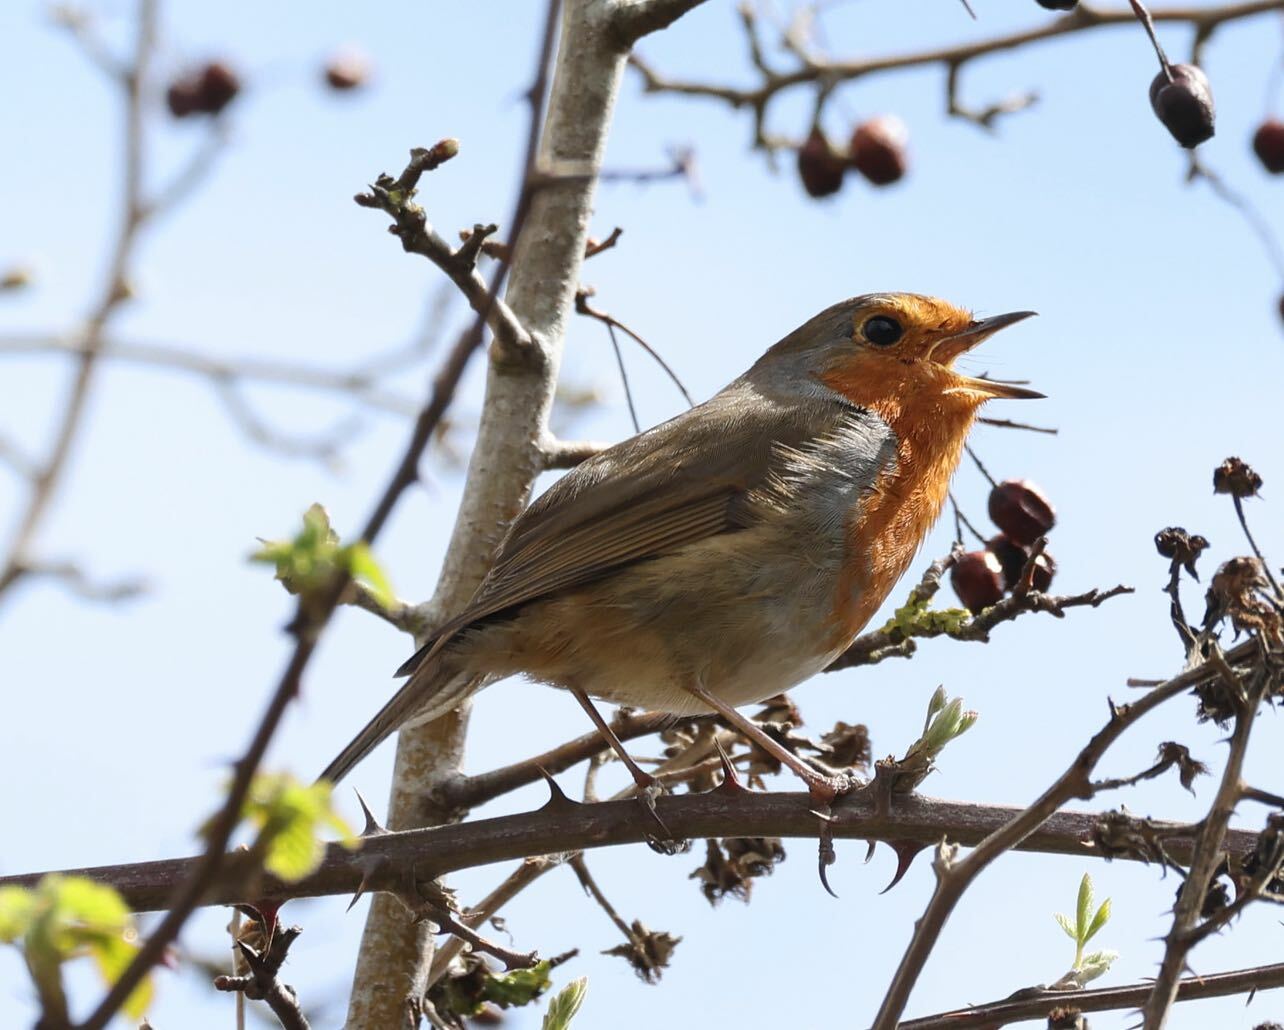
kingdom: Animalia
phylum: Chordata
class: Aves
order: Passeriformes
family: Muscicapidae
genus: Erithacus
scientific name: Erithacus rubecula
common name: European robin
